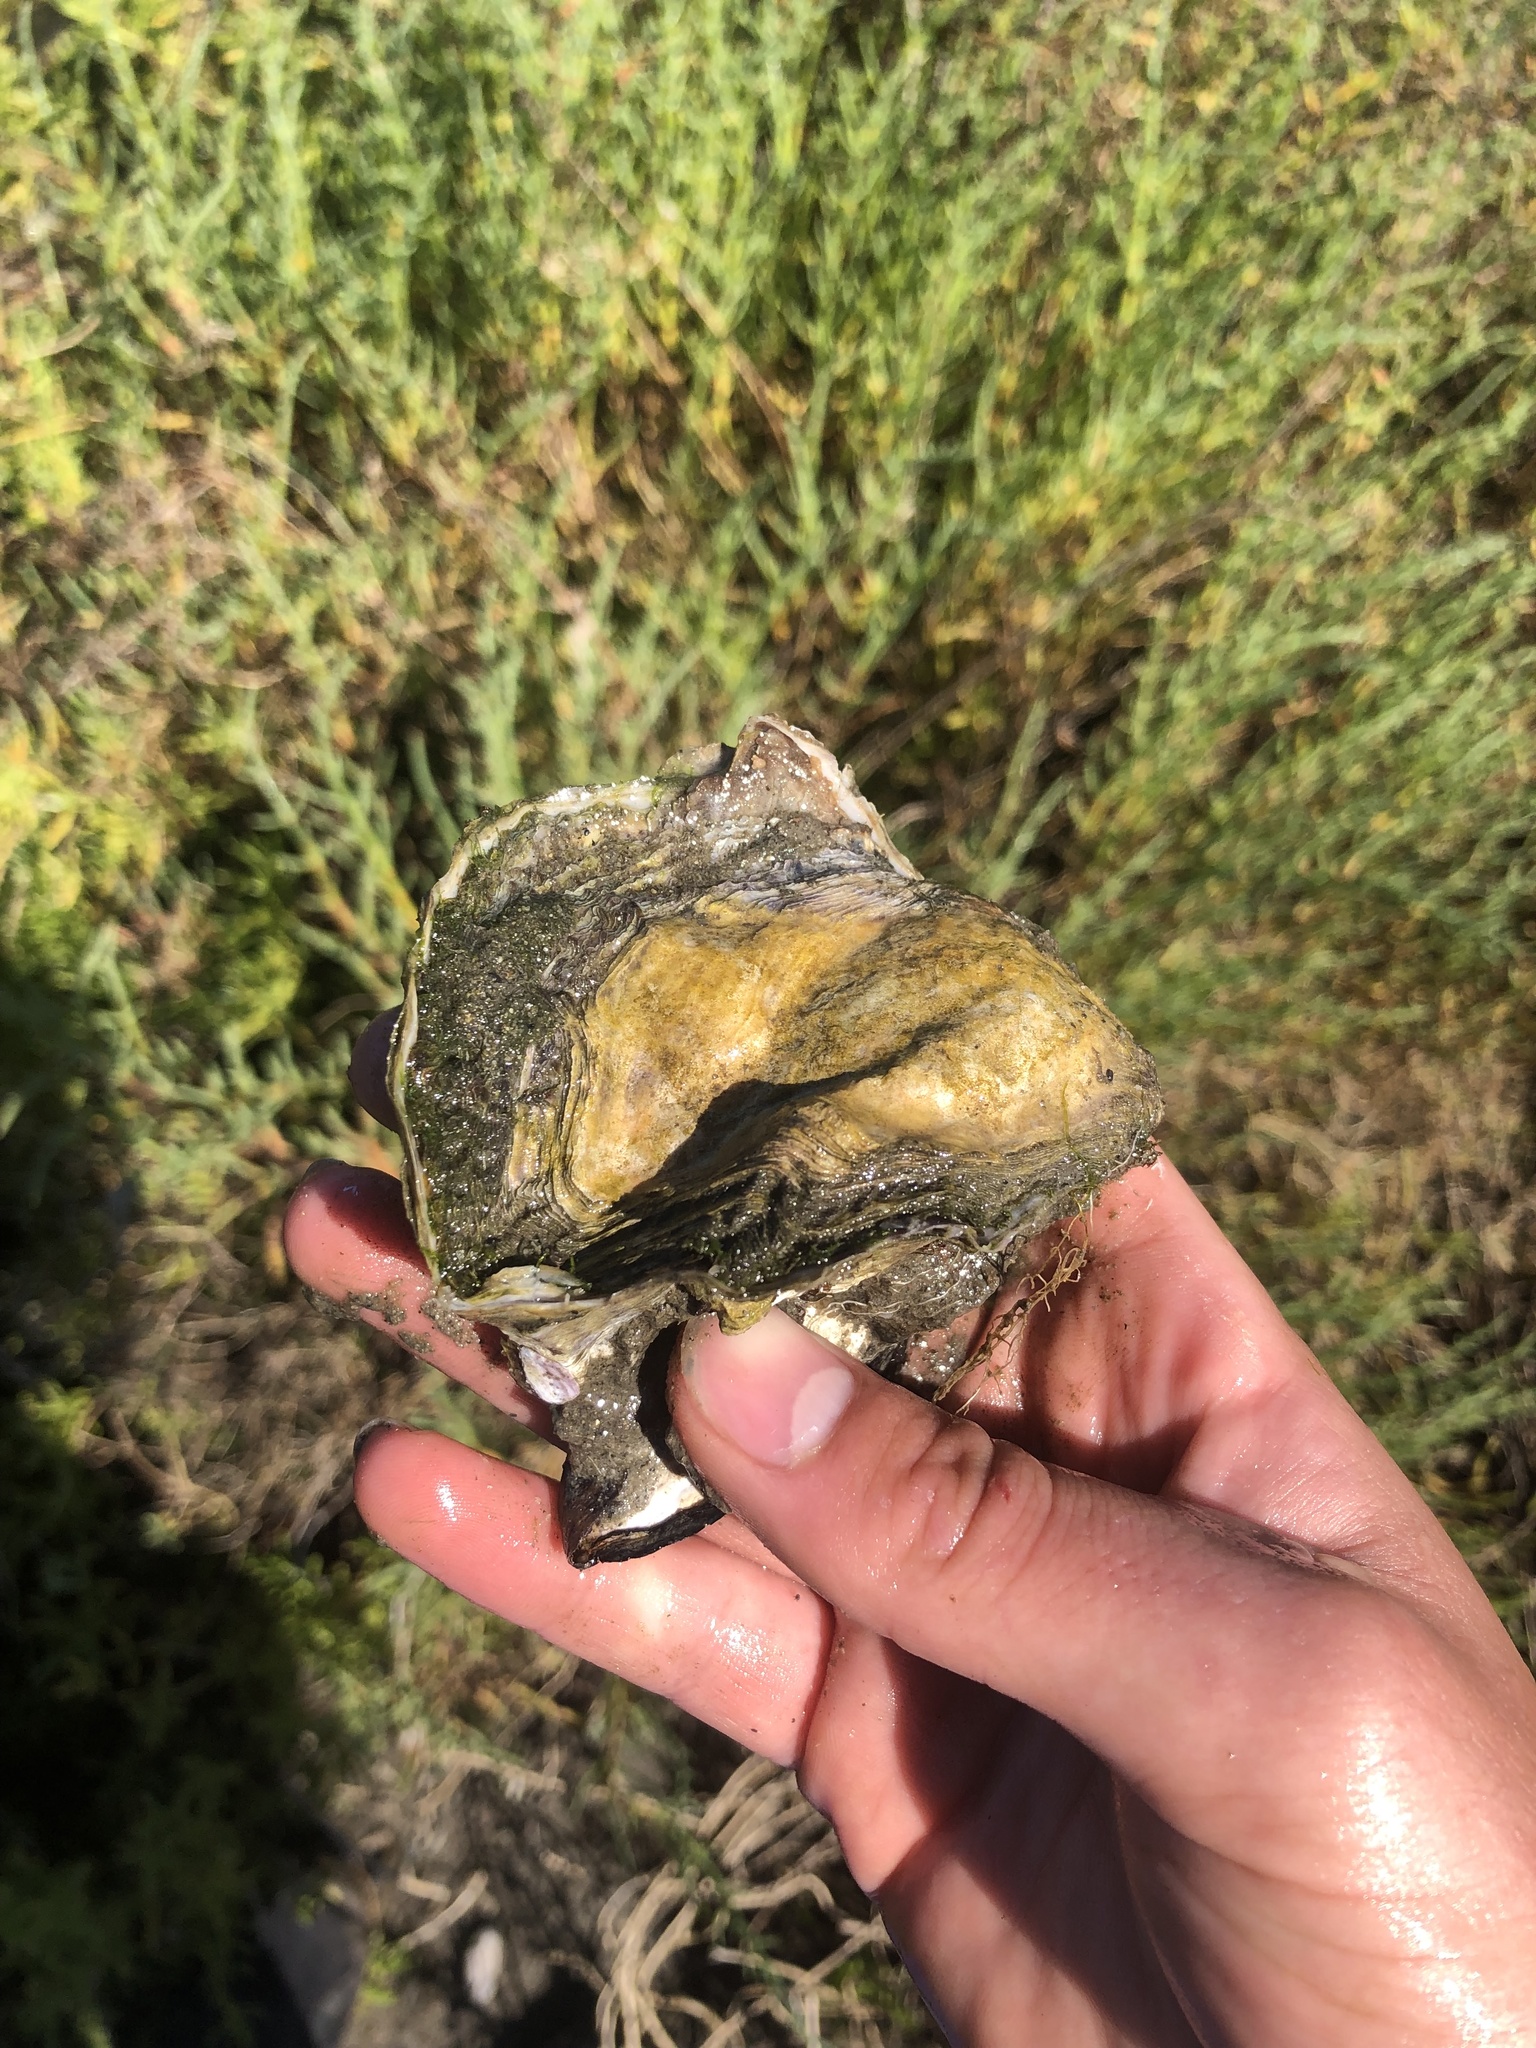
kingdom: Animalia
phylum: Mollusca
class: Bivalvia
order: Ostreida
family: Ostreidae
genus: Magallana
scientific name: Magallana gigas
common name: Pacific oyster
